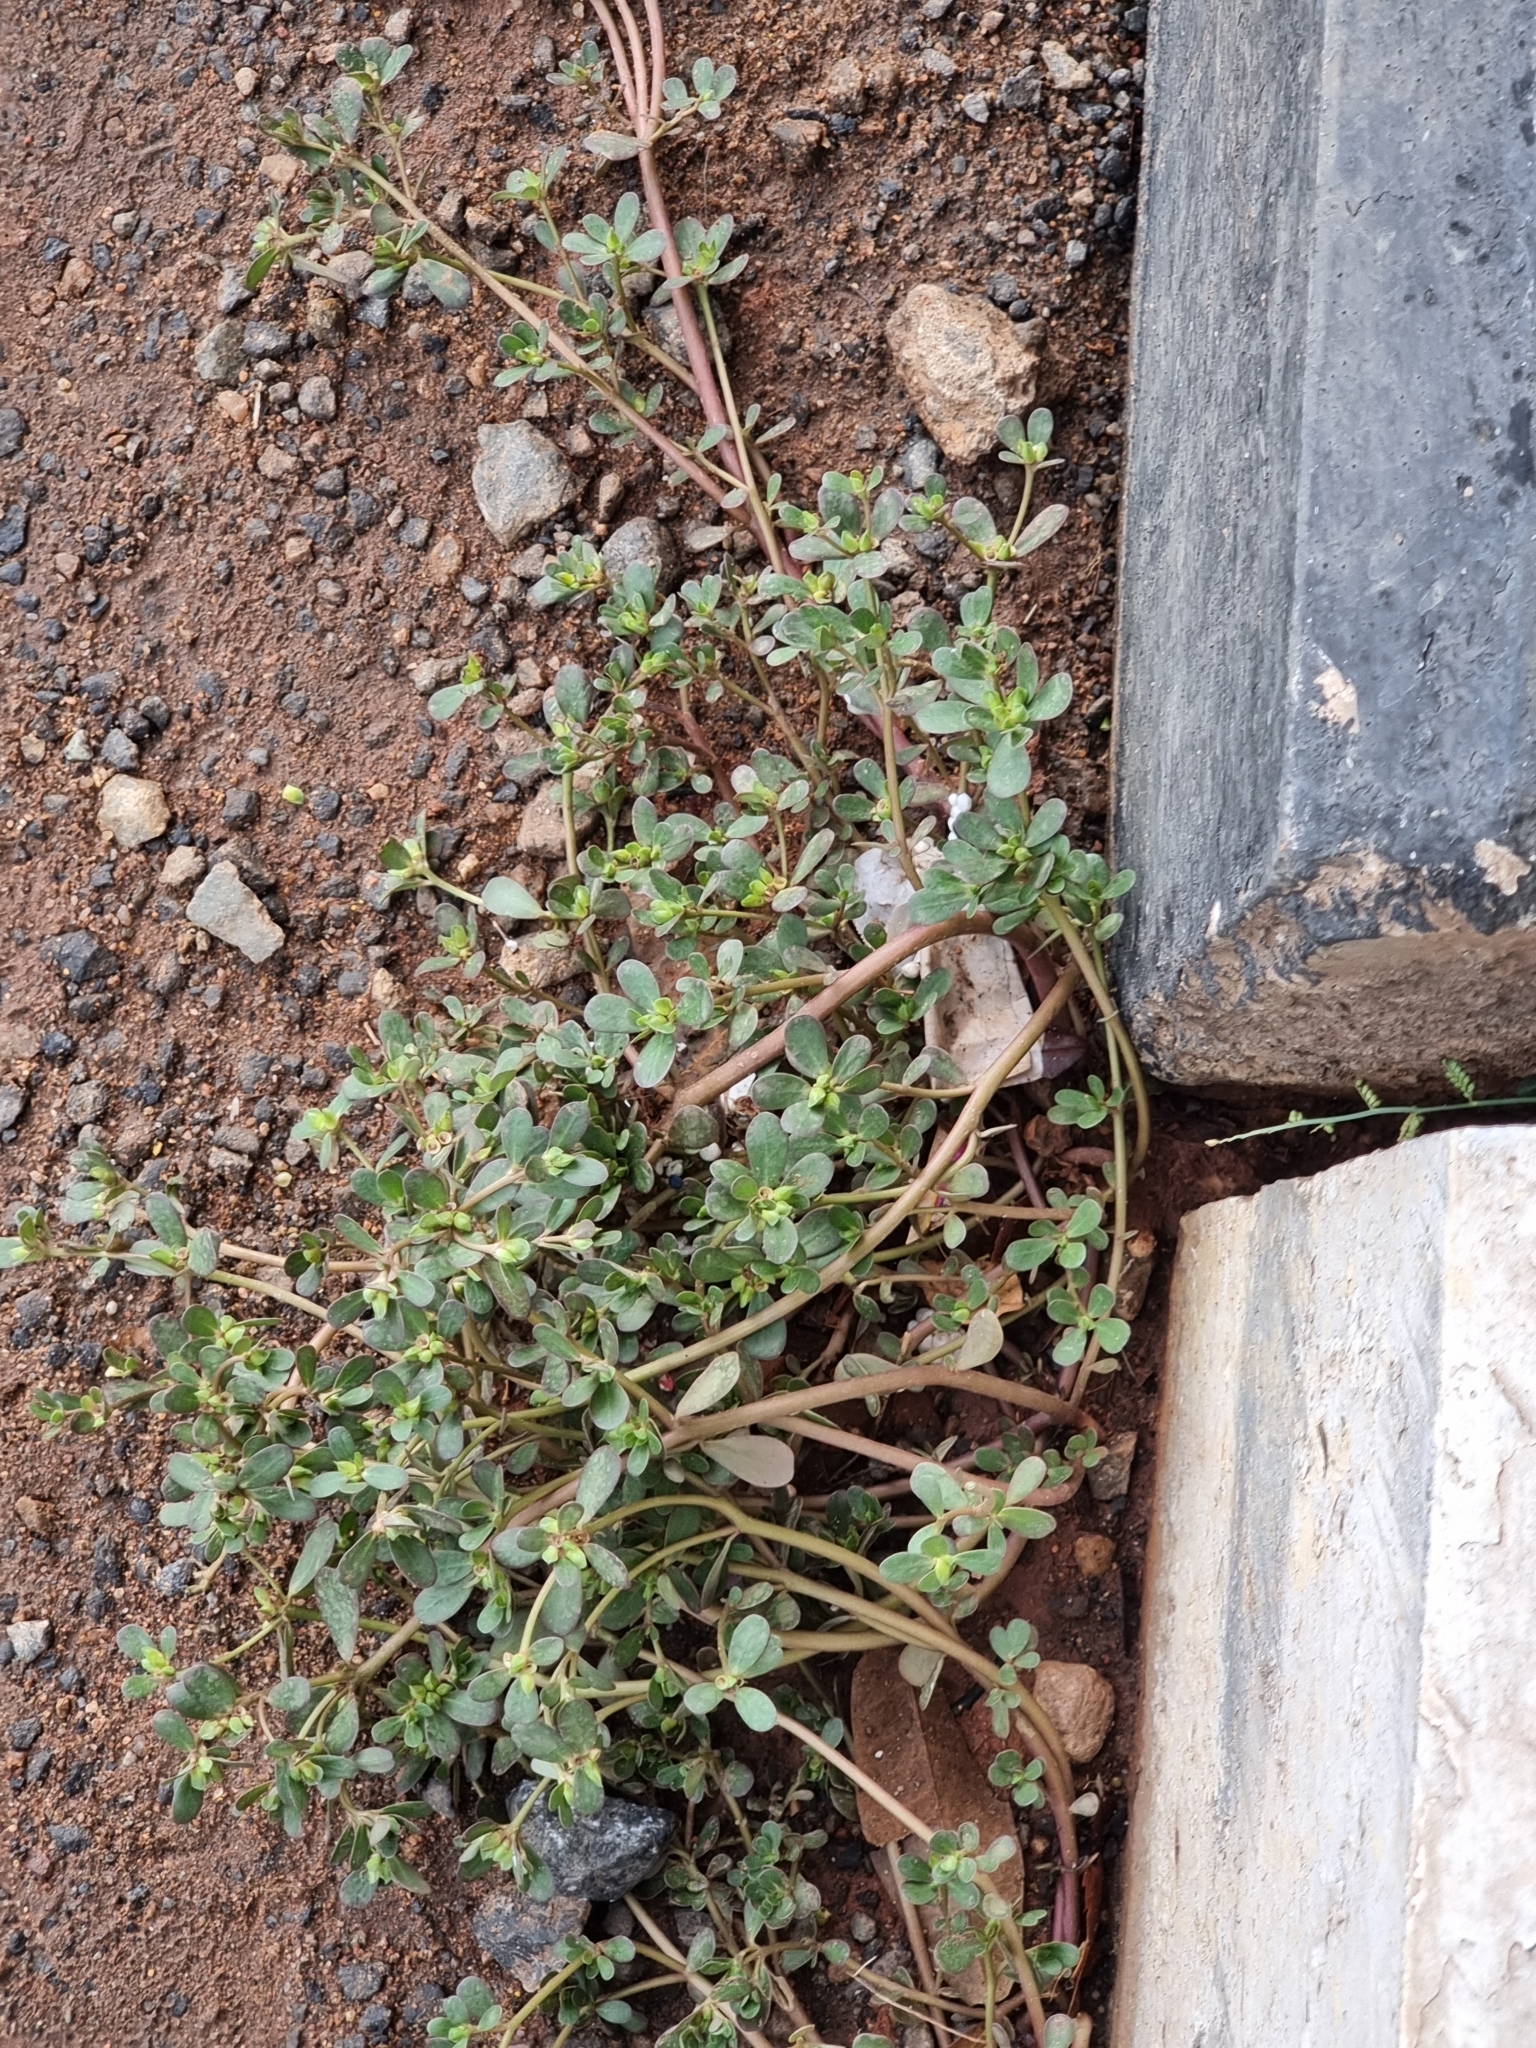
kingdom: Plantae
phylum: Tracheophyta
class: Magnoliopsida
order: Caryophyllales
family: Portulacaceae
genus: Portulaca
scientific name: Portulaca oleracea
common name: Common purslane
